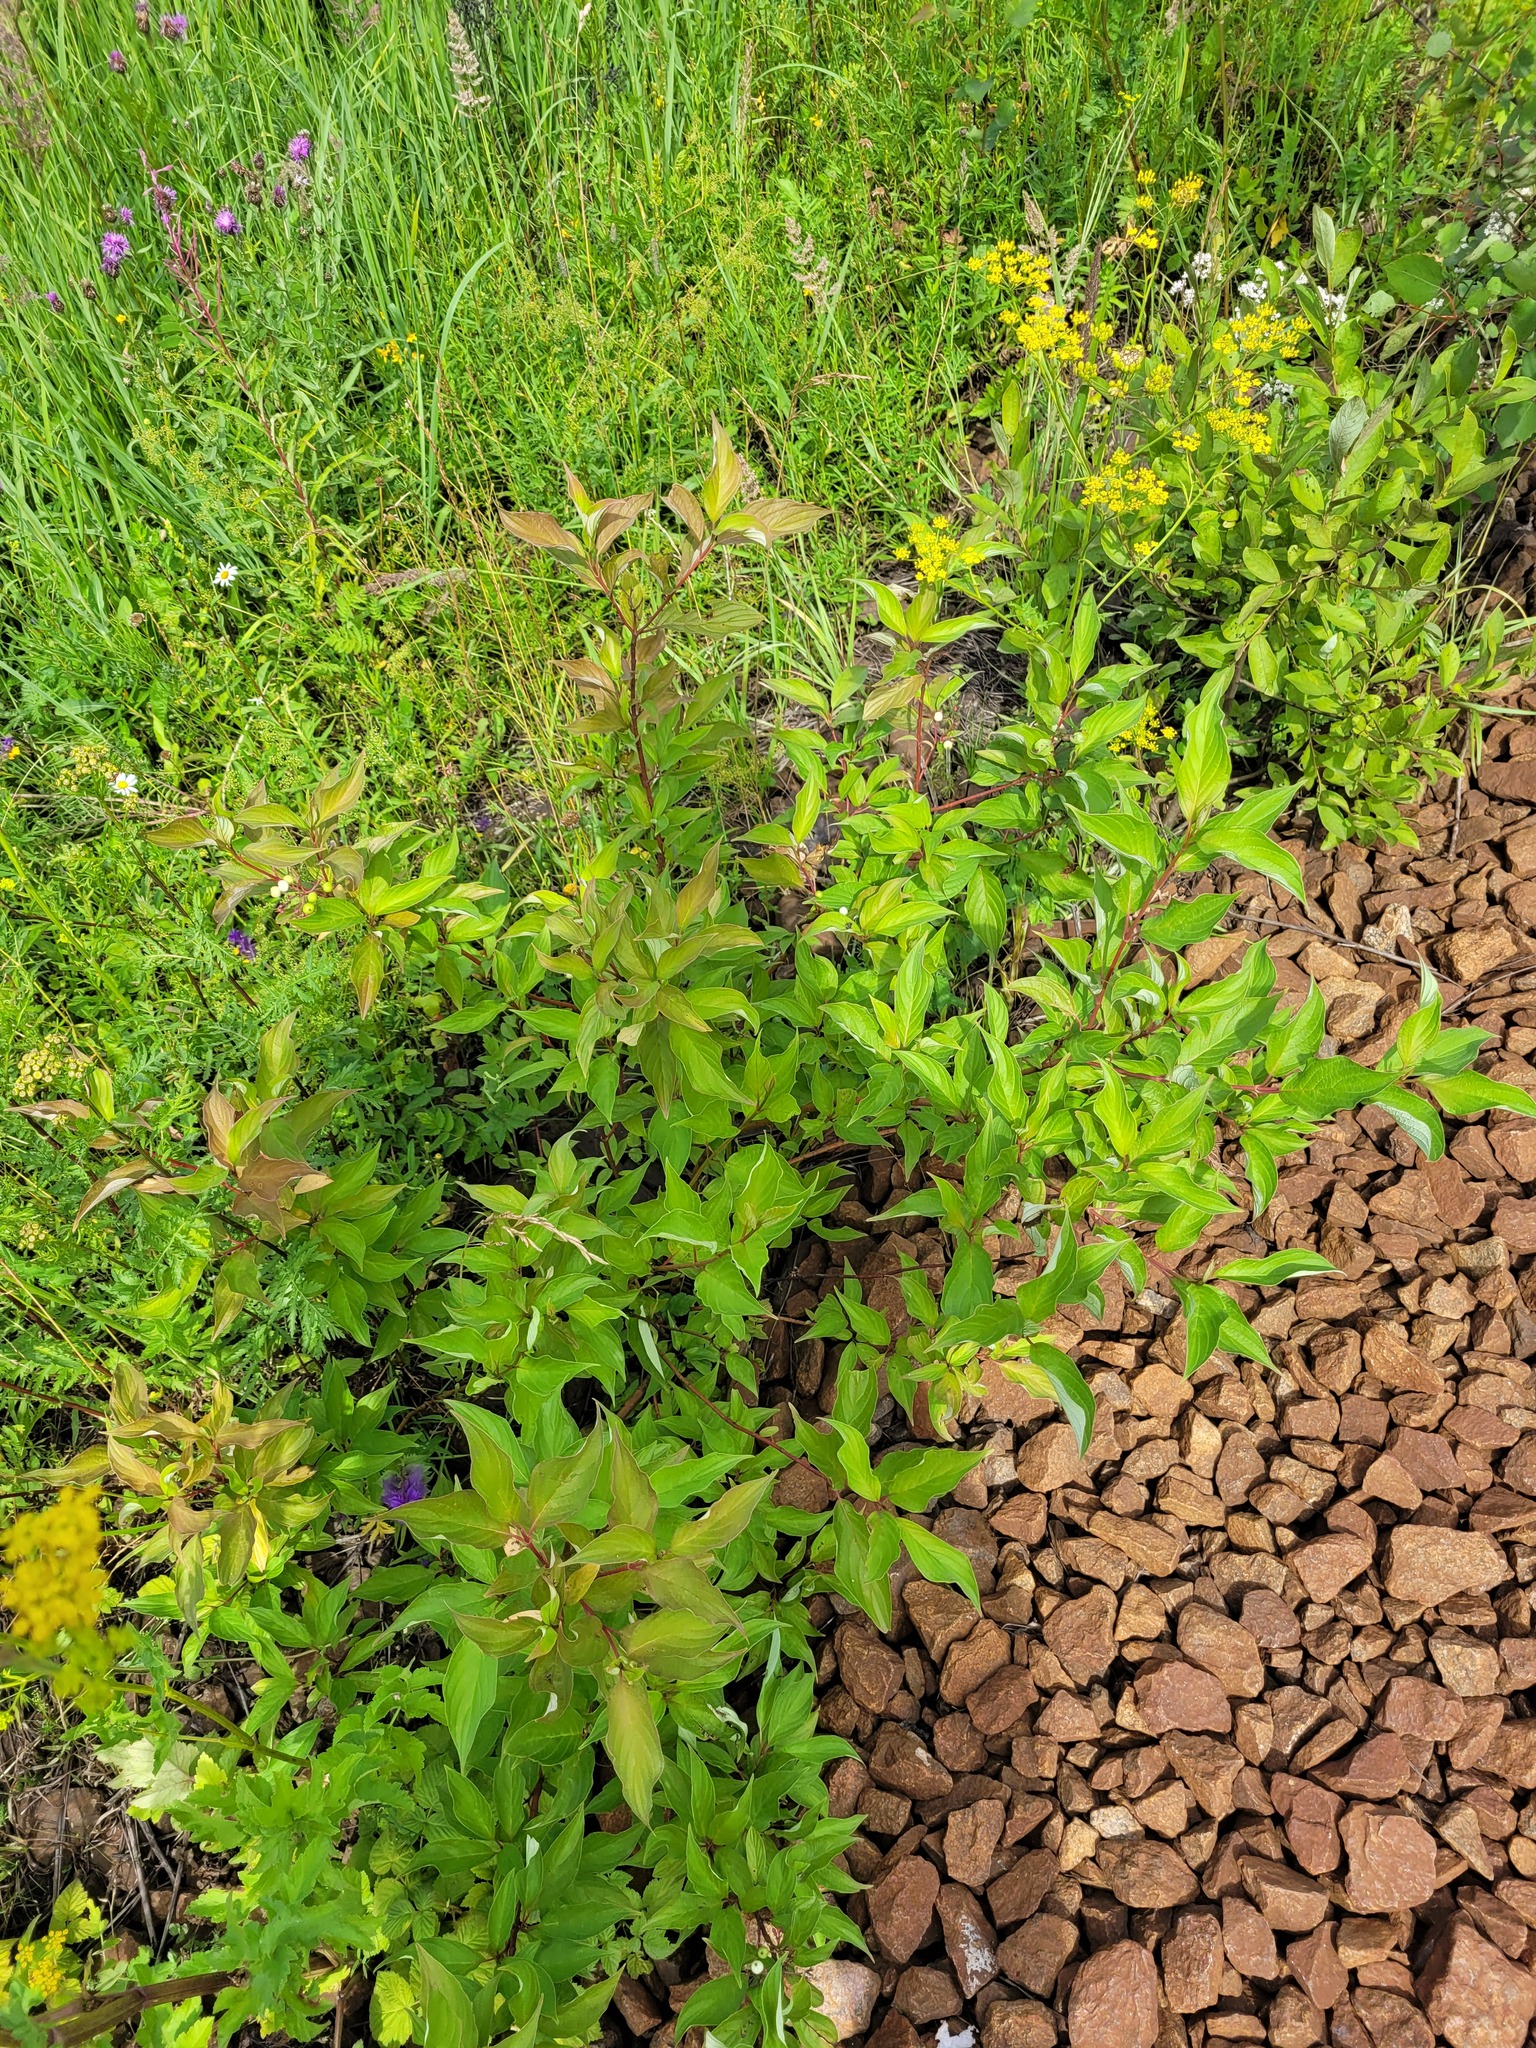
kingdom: Plantae
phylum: Tracheophyta
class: Magnoliopsida
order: Cornales
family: Cornaceae
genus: Cornus
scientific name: Cornus alba
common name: White dogwood
